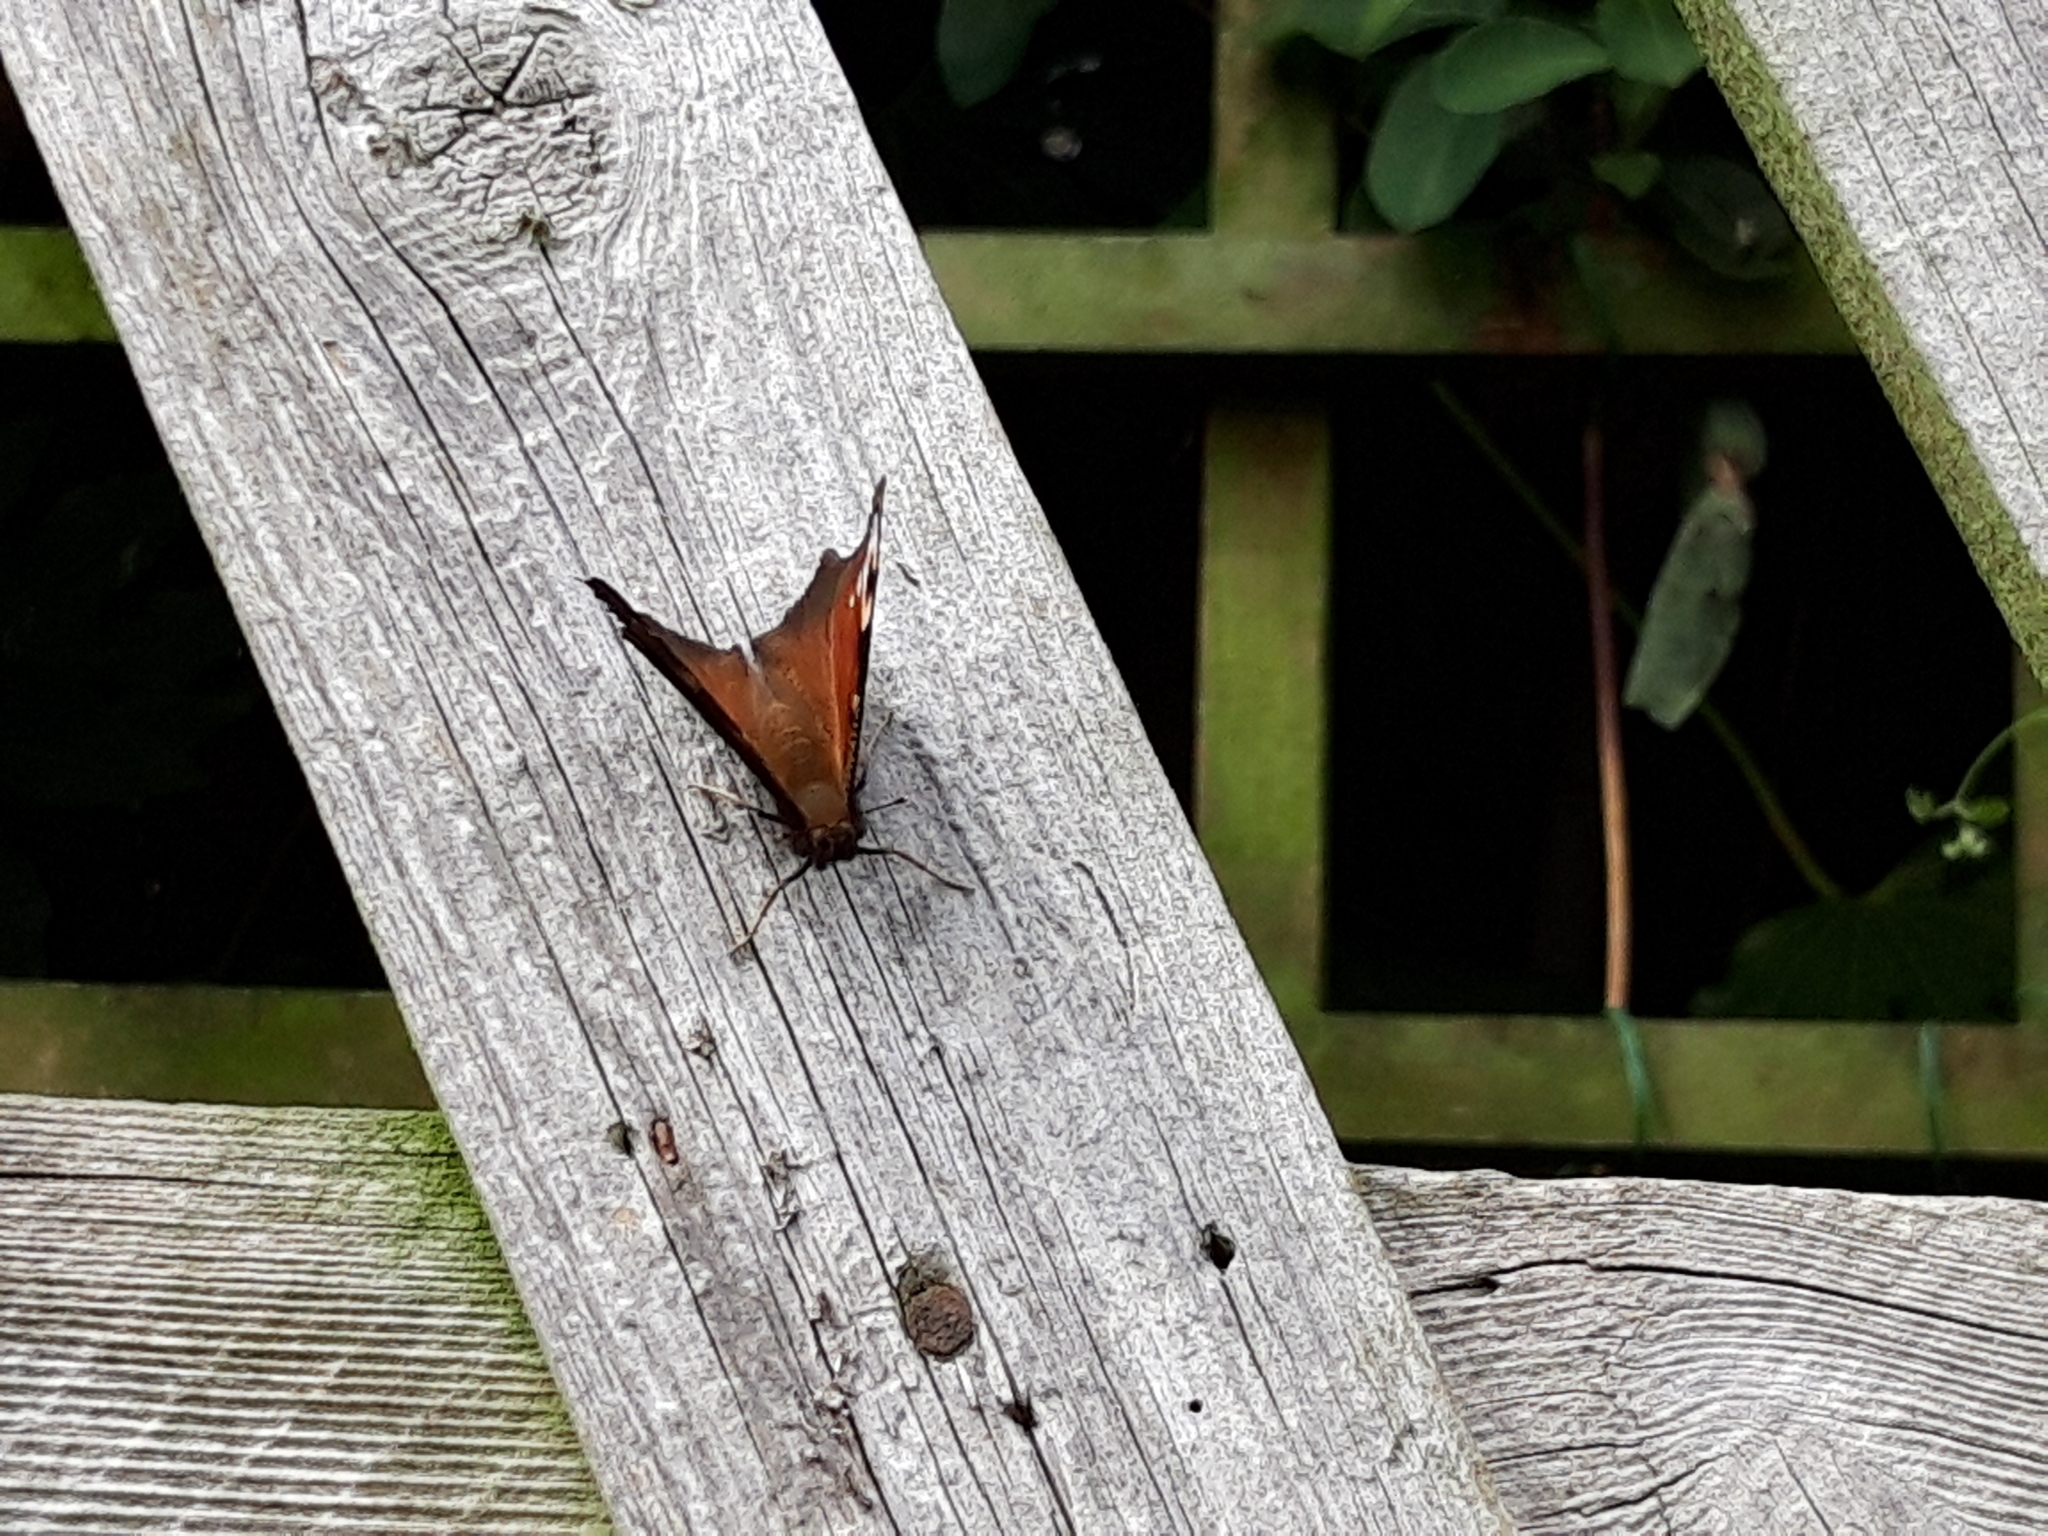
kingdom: Animalia
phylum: Arthropoda
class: Insecta
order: Lepidoptera
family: Nymphalidae
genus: Aglais
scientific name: Aglais io
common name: Peacock
